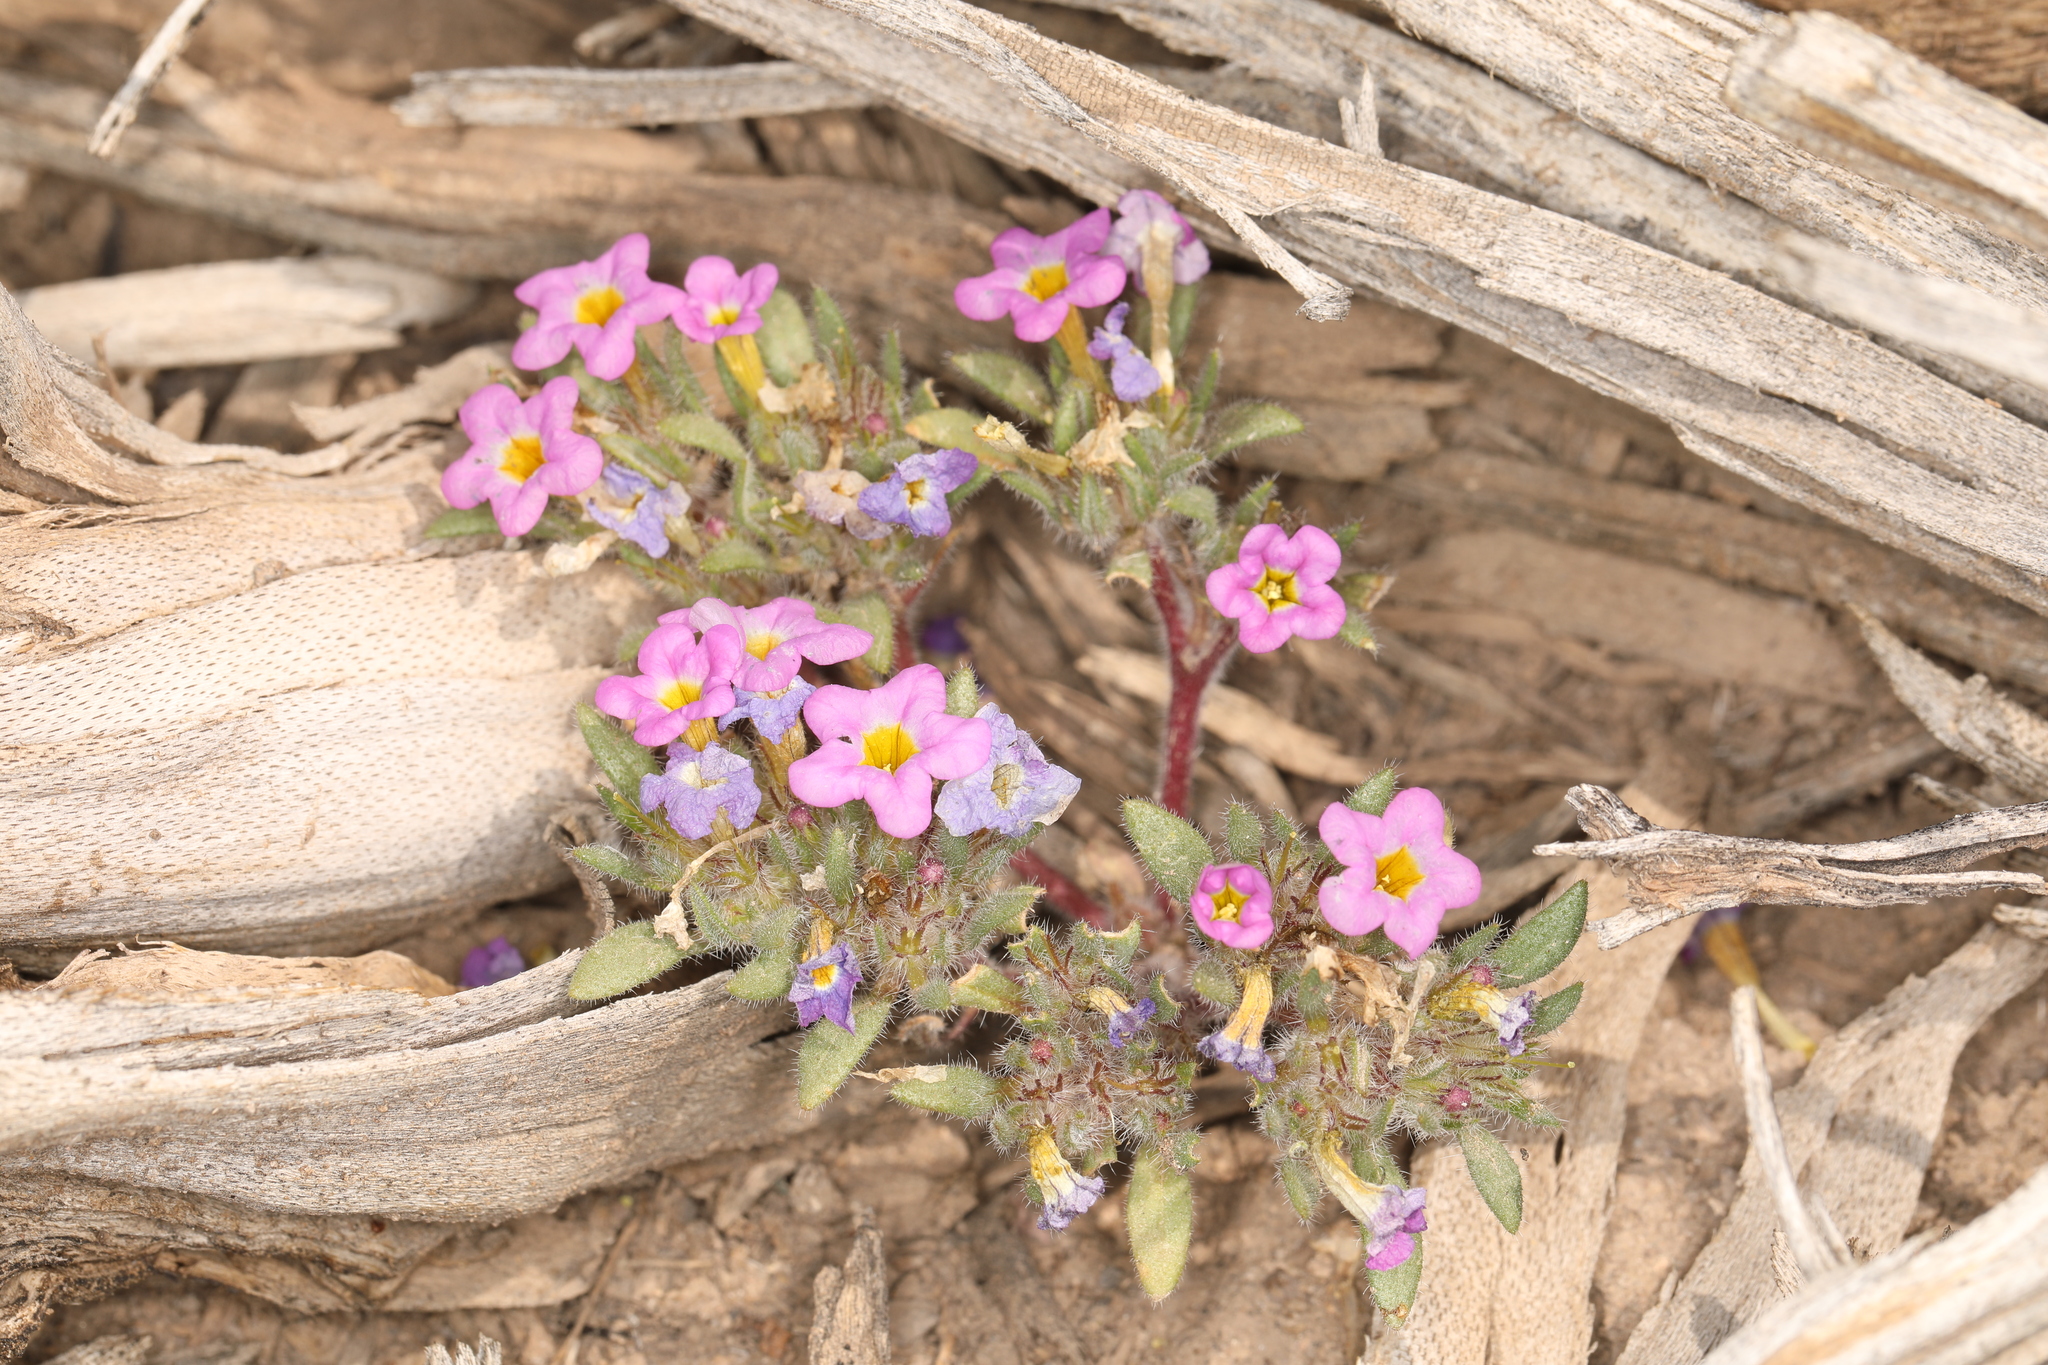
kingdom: Plantae
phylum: Tracheophyta
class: Magnoliopsida
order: Boraginales
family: Namaceae
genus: Nama
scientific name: Nama aretioides
